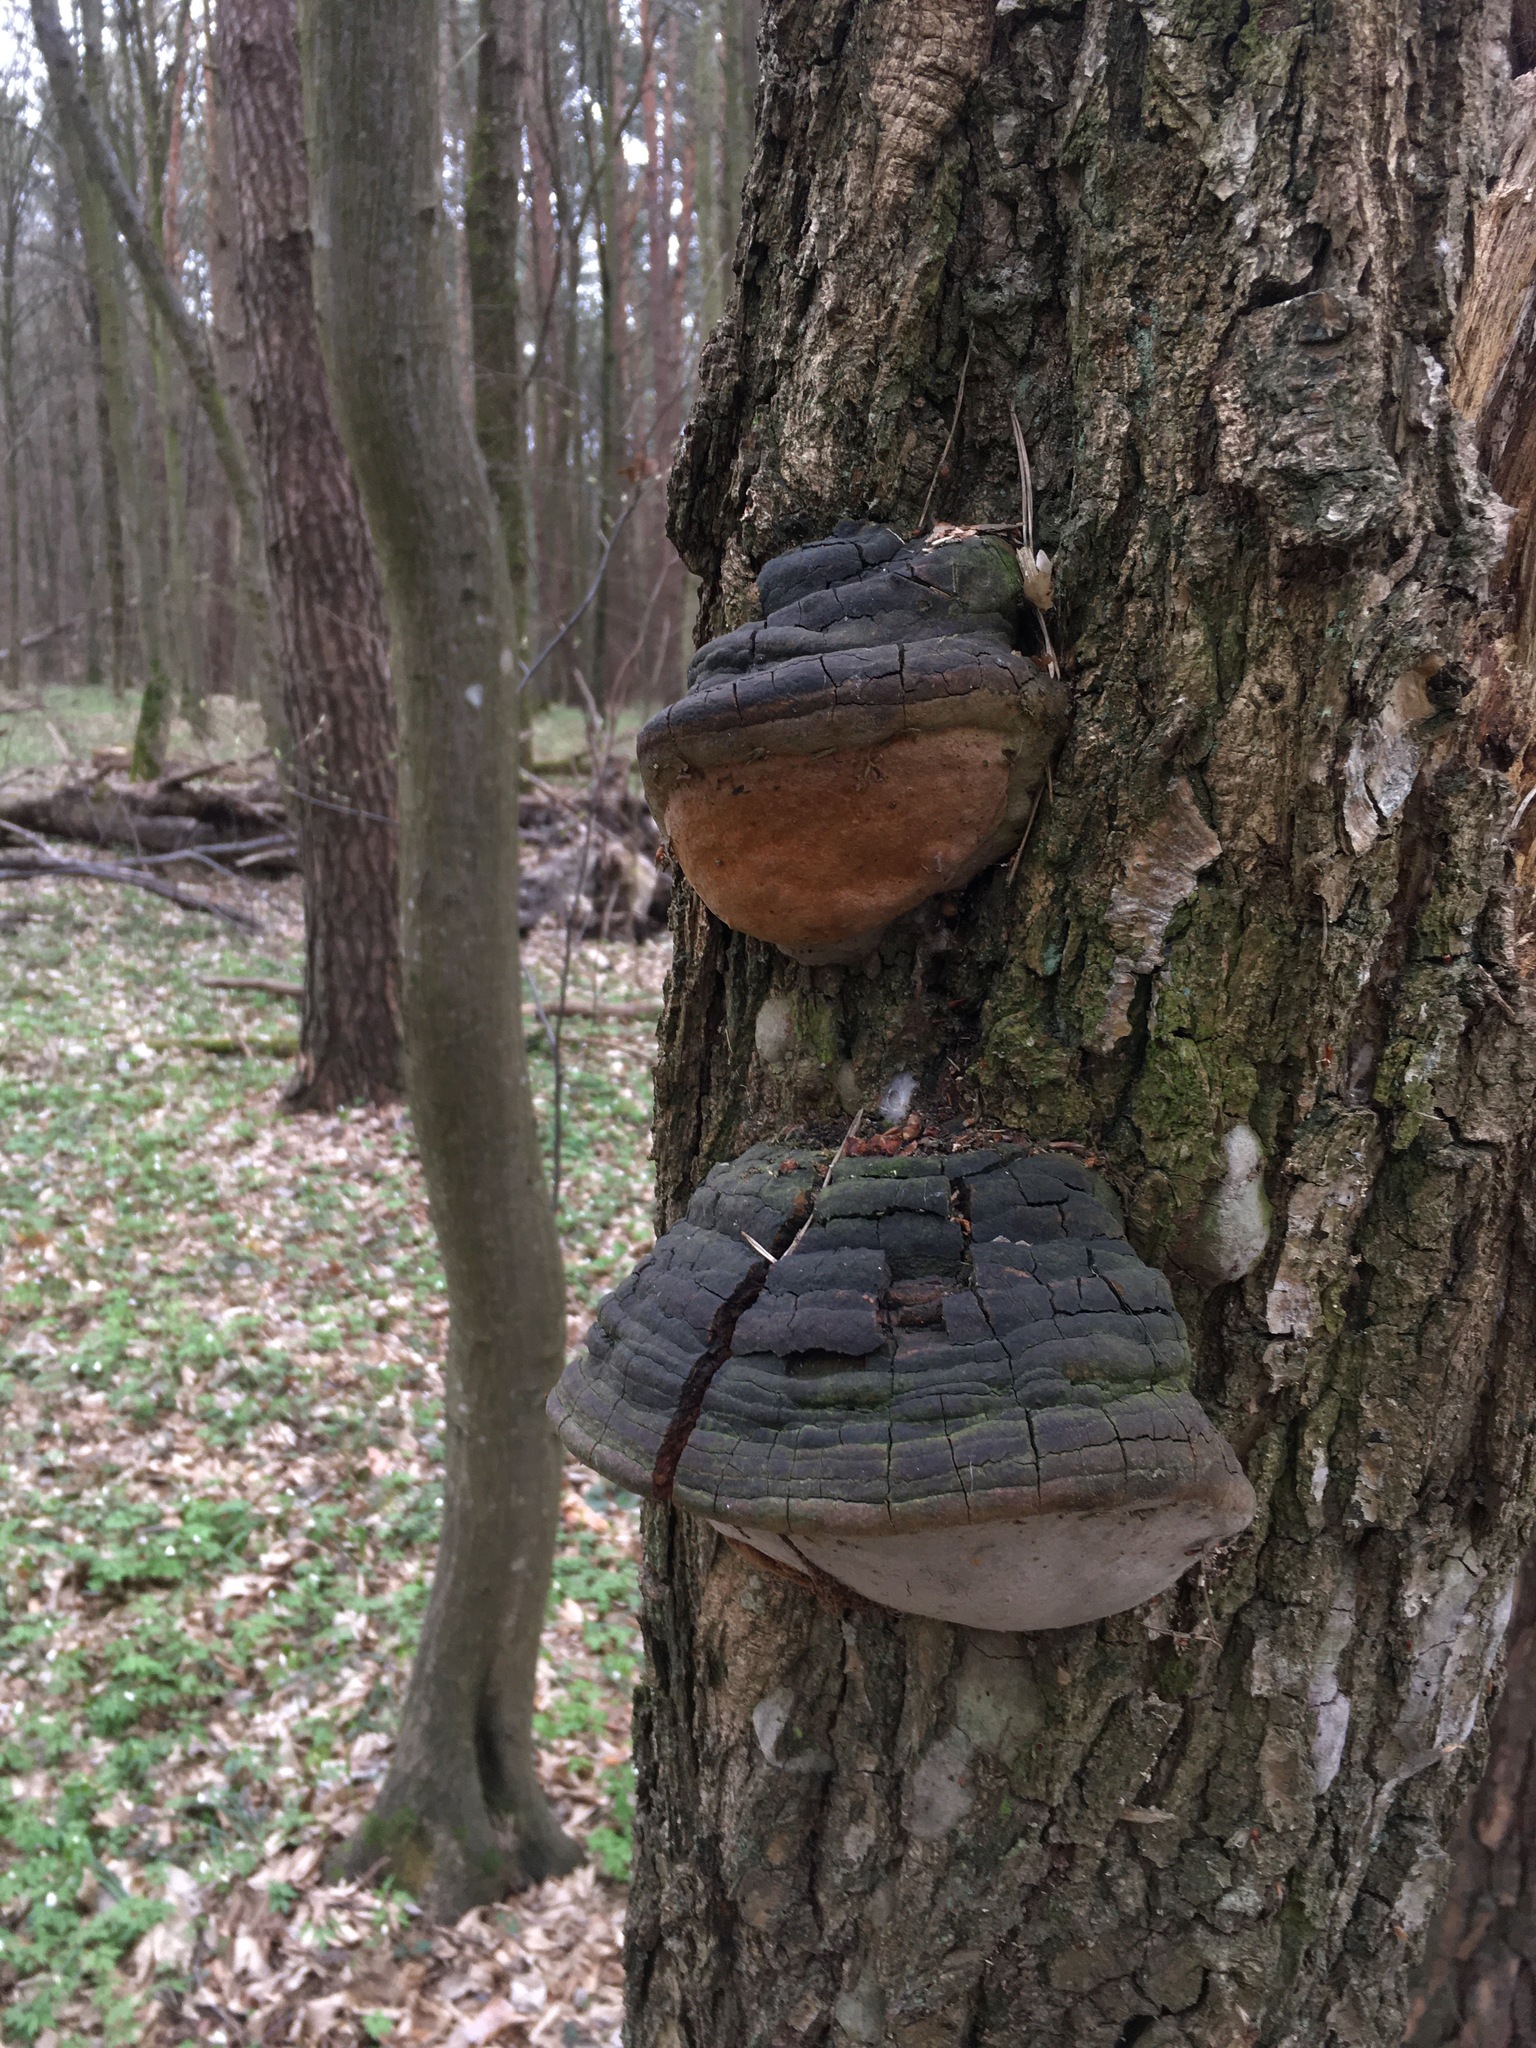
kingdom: Fungi
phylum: Basidiomycota
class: Agaricomycetes
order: Hymenochaetales
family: Hymenochaetaceae
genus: Fomitiporia
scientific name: Fomitiporia robusta
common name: Robust bracket
